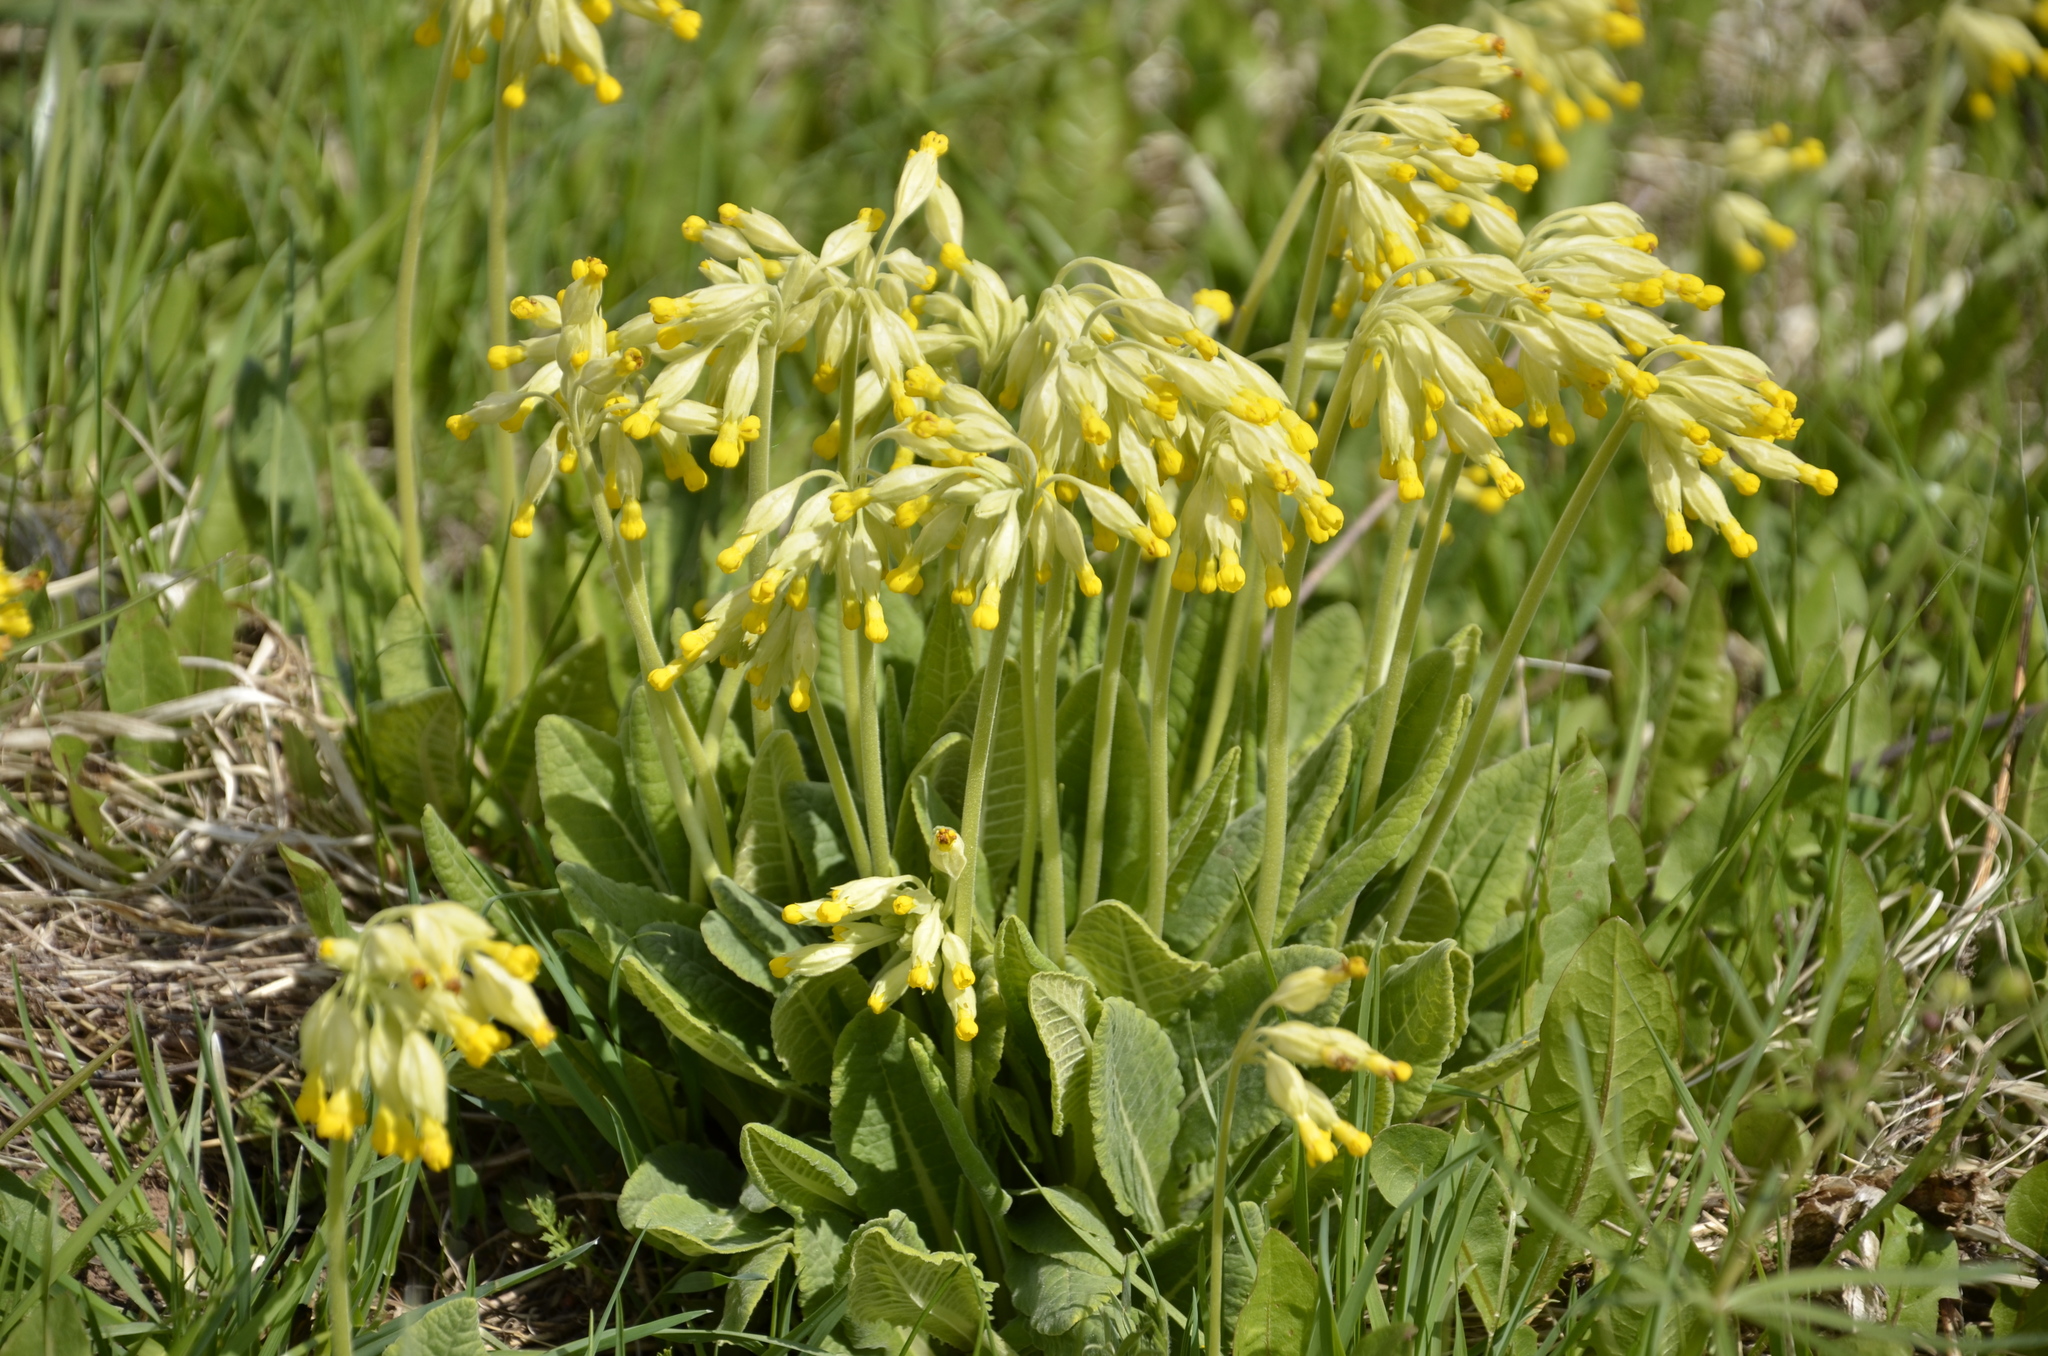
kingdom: Plantae
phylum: Tracheophyta
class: Magnoliopsida
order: Ericales
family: Primulaceae
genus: Primula
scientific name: Primula veris
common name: Cowslip
